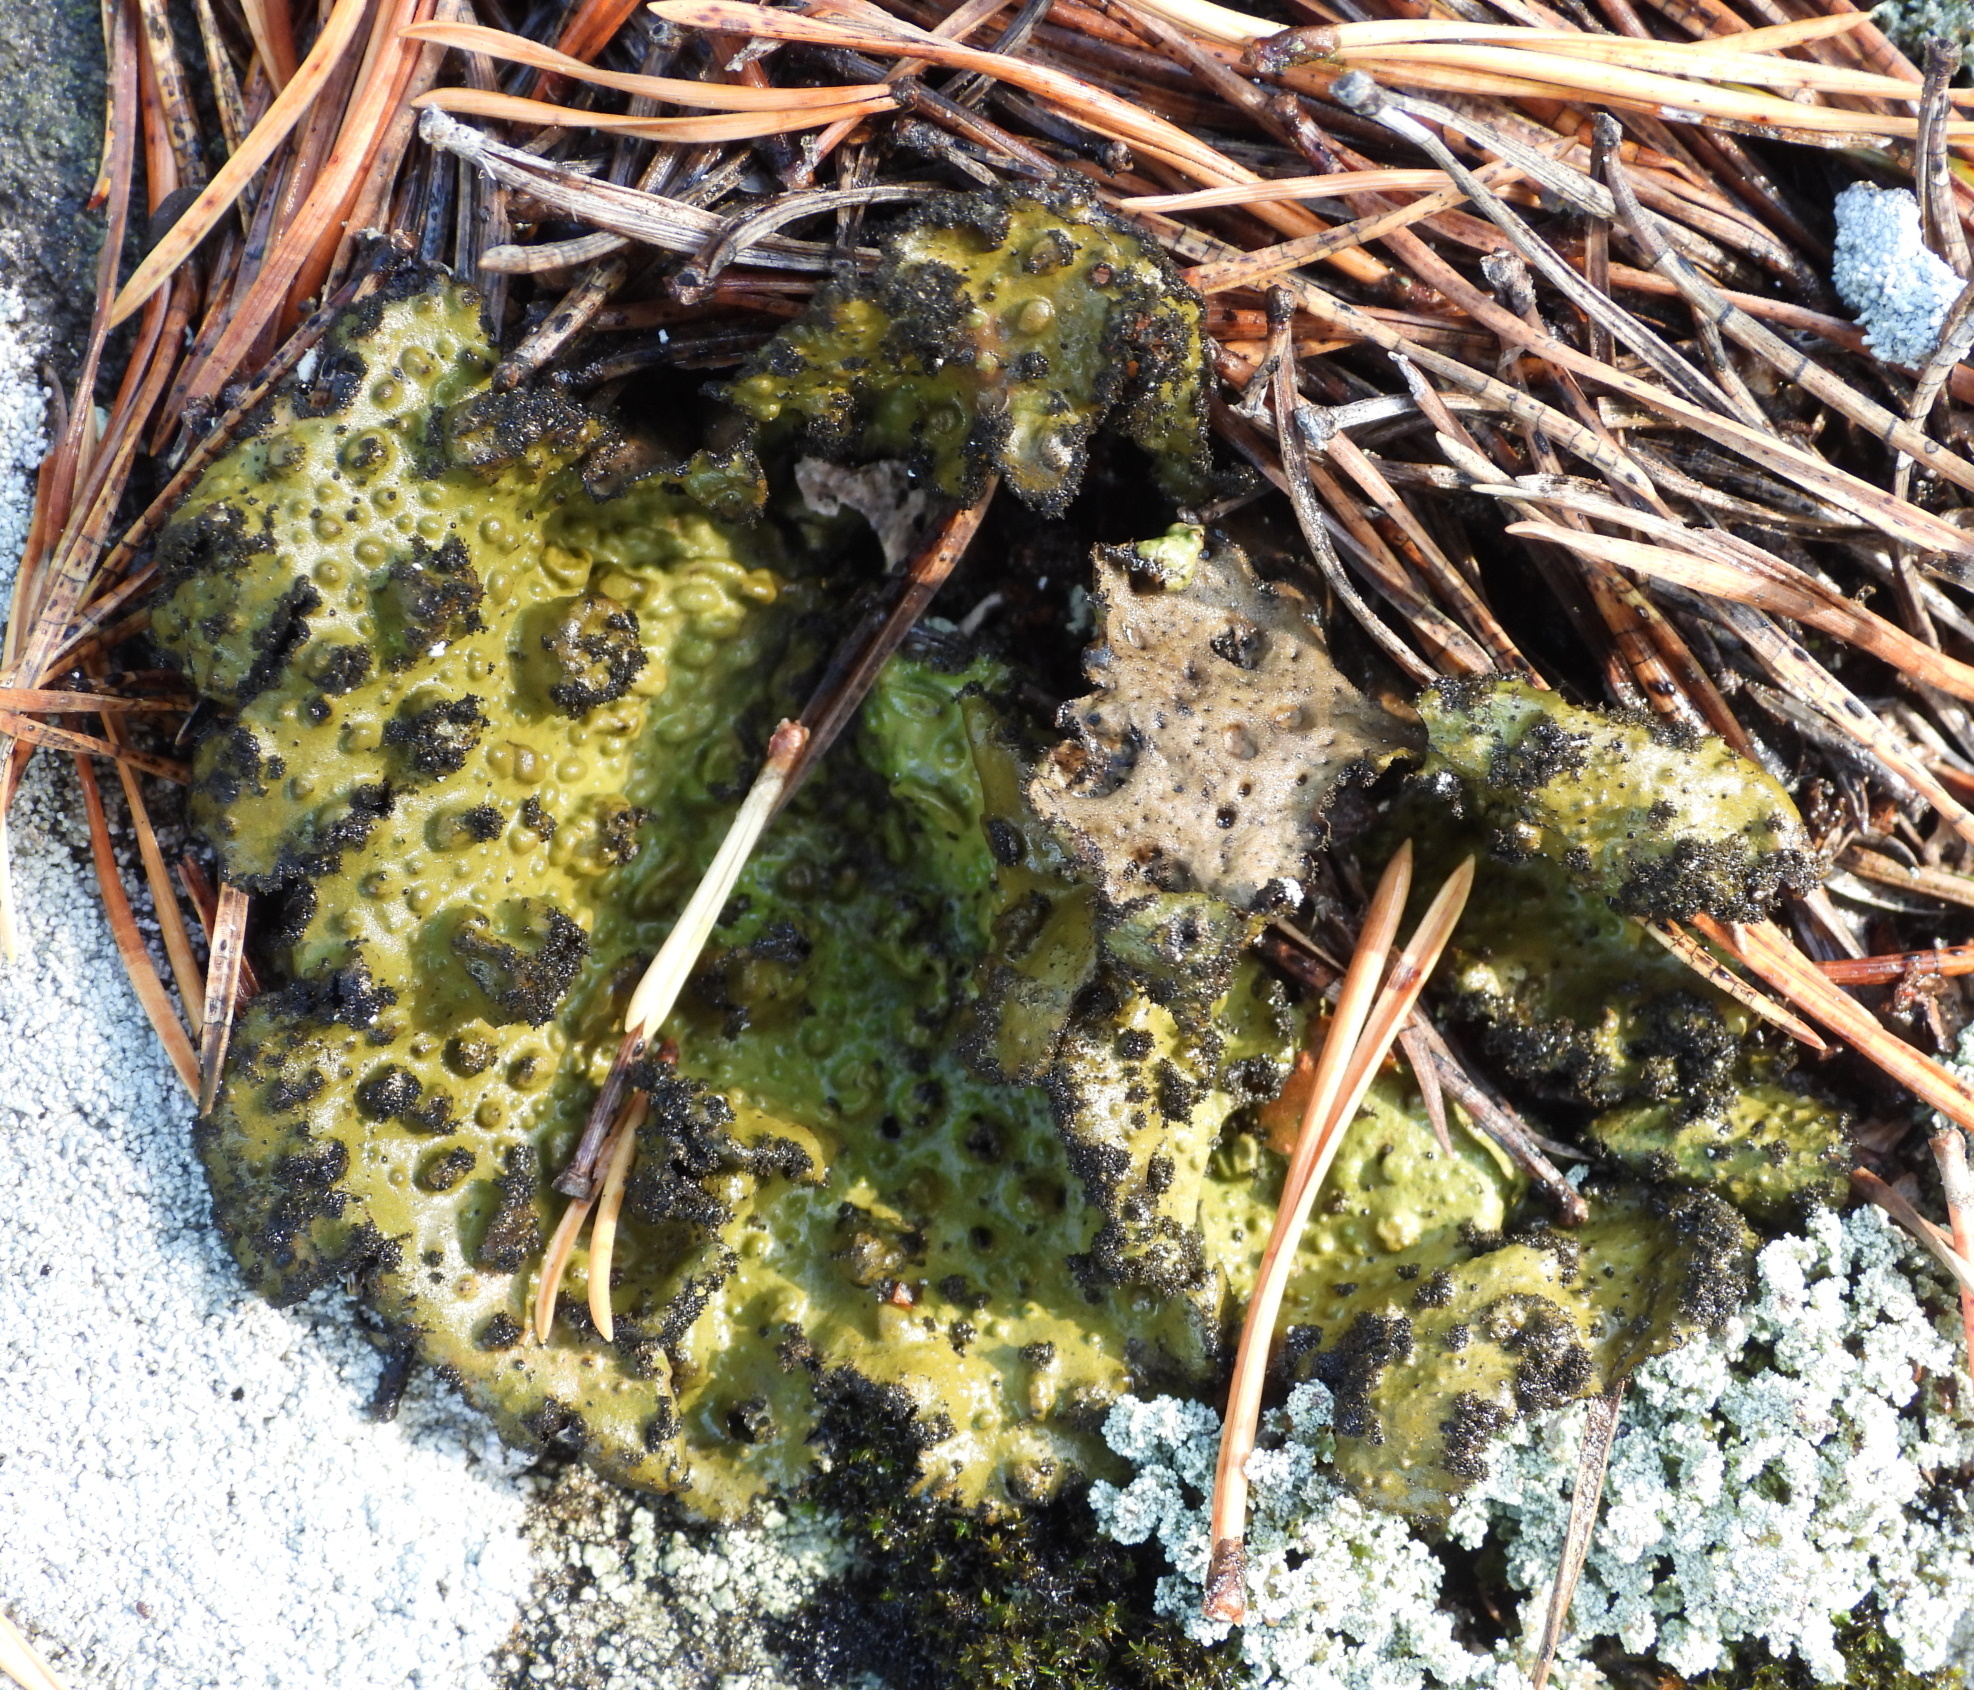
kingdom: Fungi
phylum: Ascomycota
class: Lecanoromycetes
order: Umbilicariales
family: Umbilicariaceae
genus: Lasallia
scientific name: Lasallia pustulata
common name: Blistered toadskin lichen
